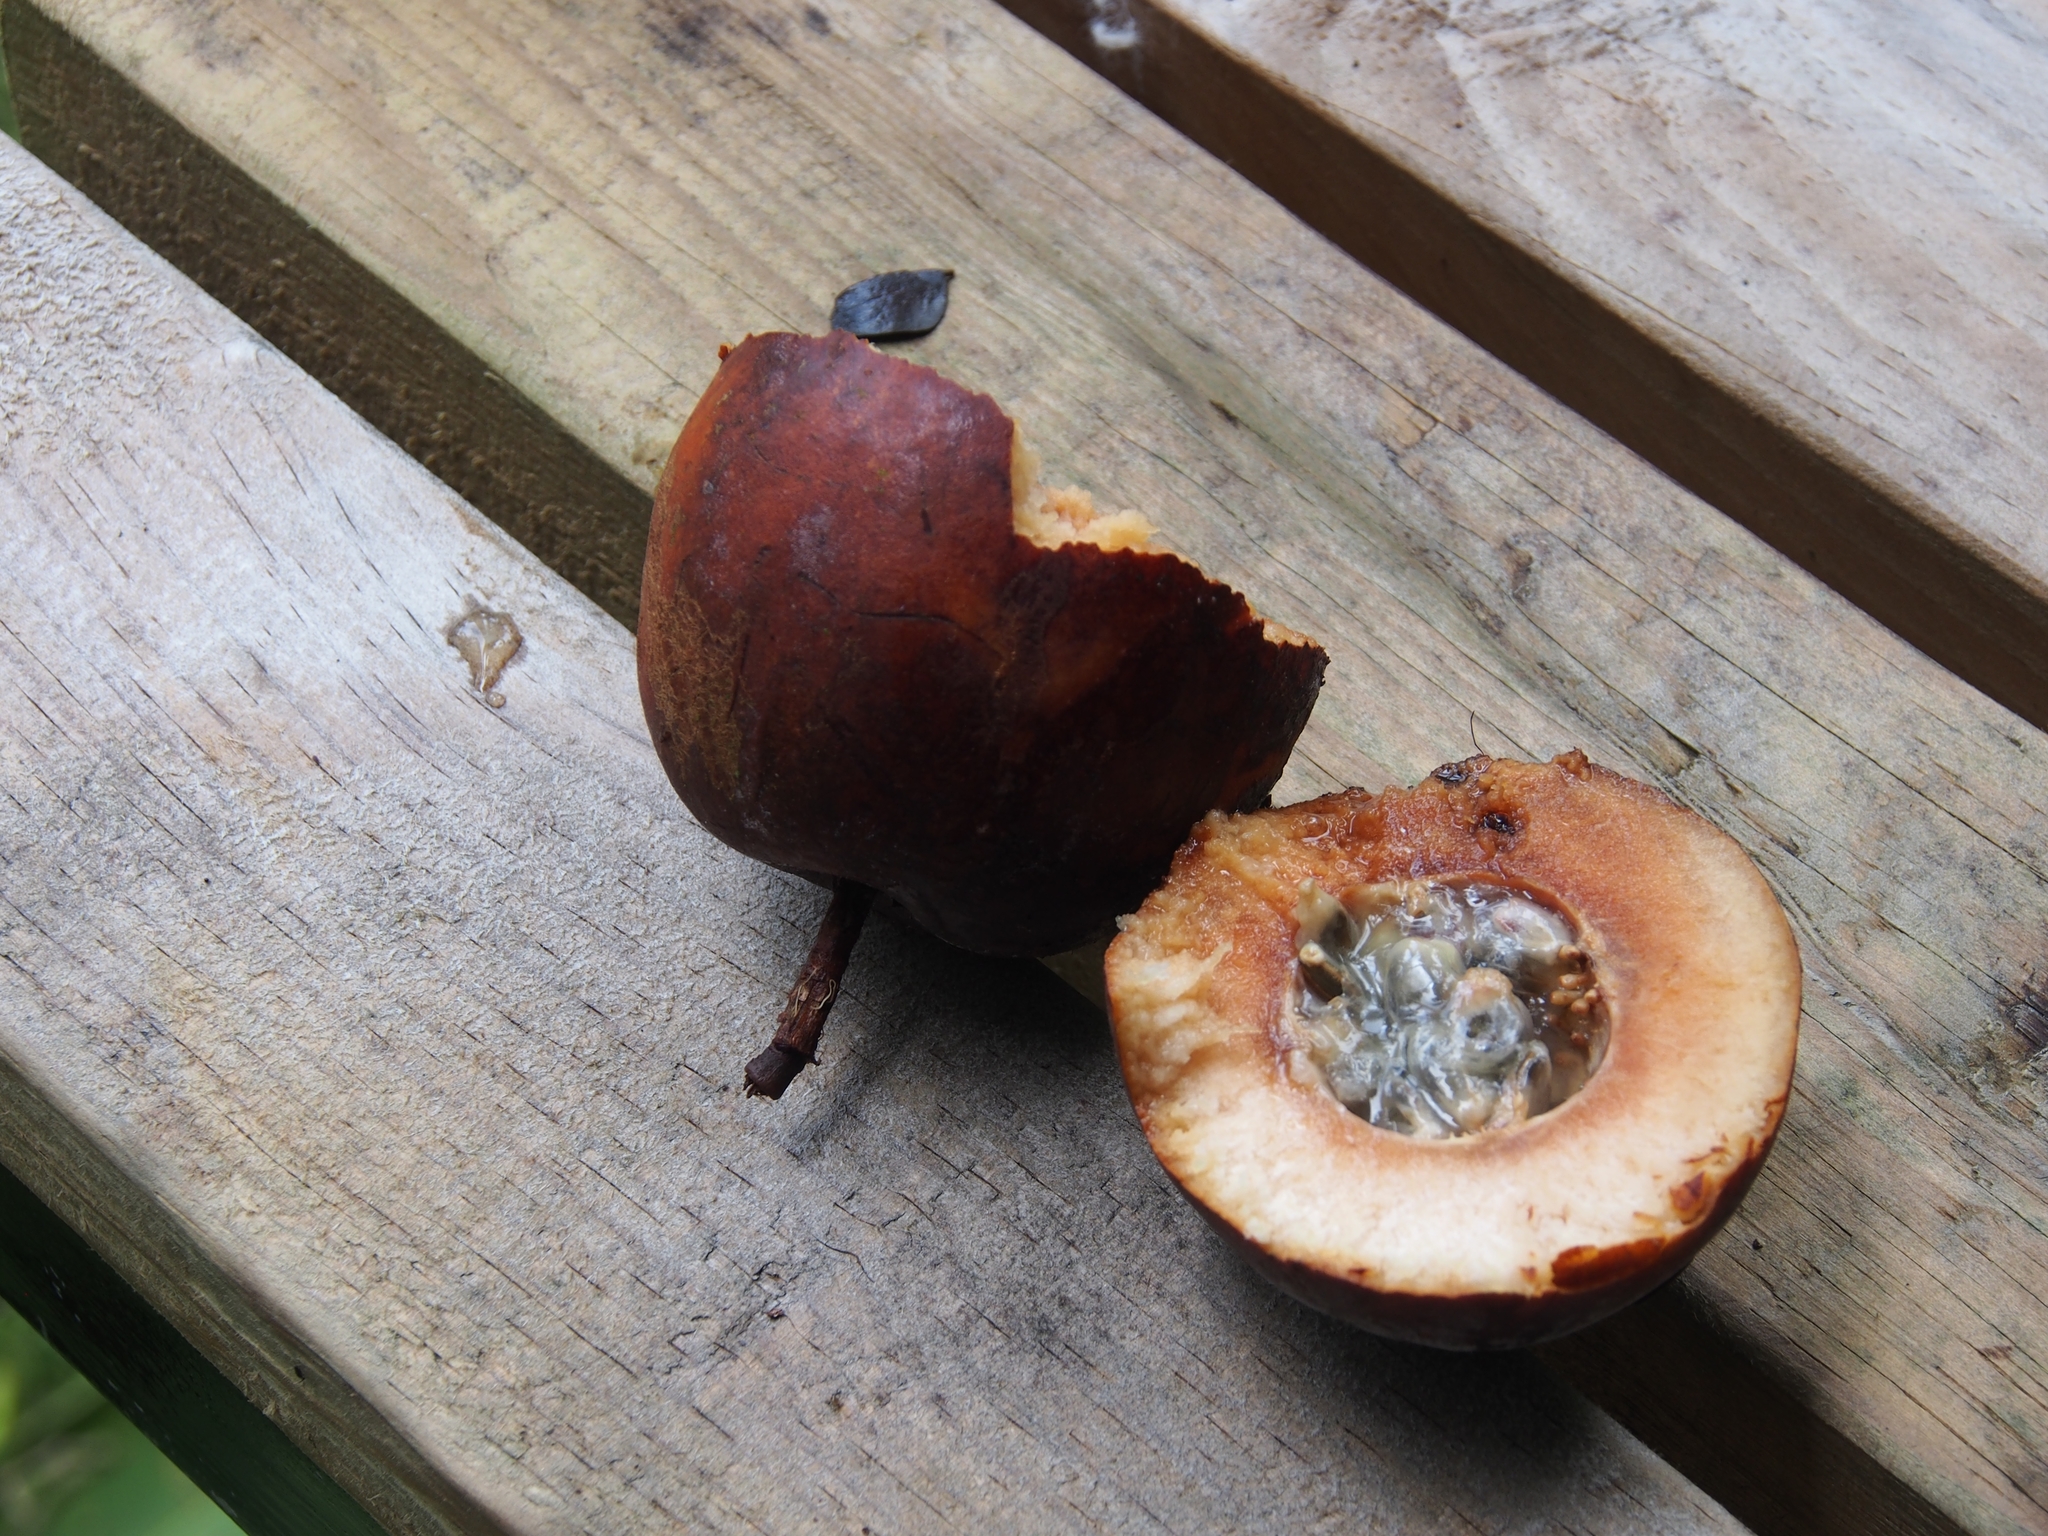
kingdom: Plantae
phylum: Tracheophyta
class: Magnoliopsida
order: Malpighiales
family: Passifloraceae
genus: Passiflora
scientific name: Passiflora brauliensis
